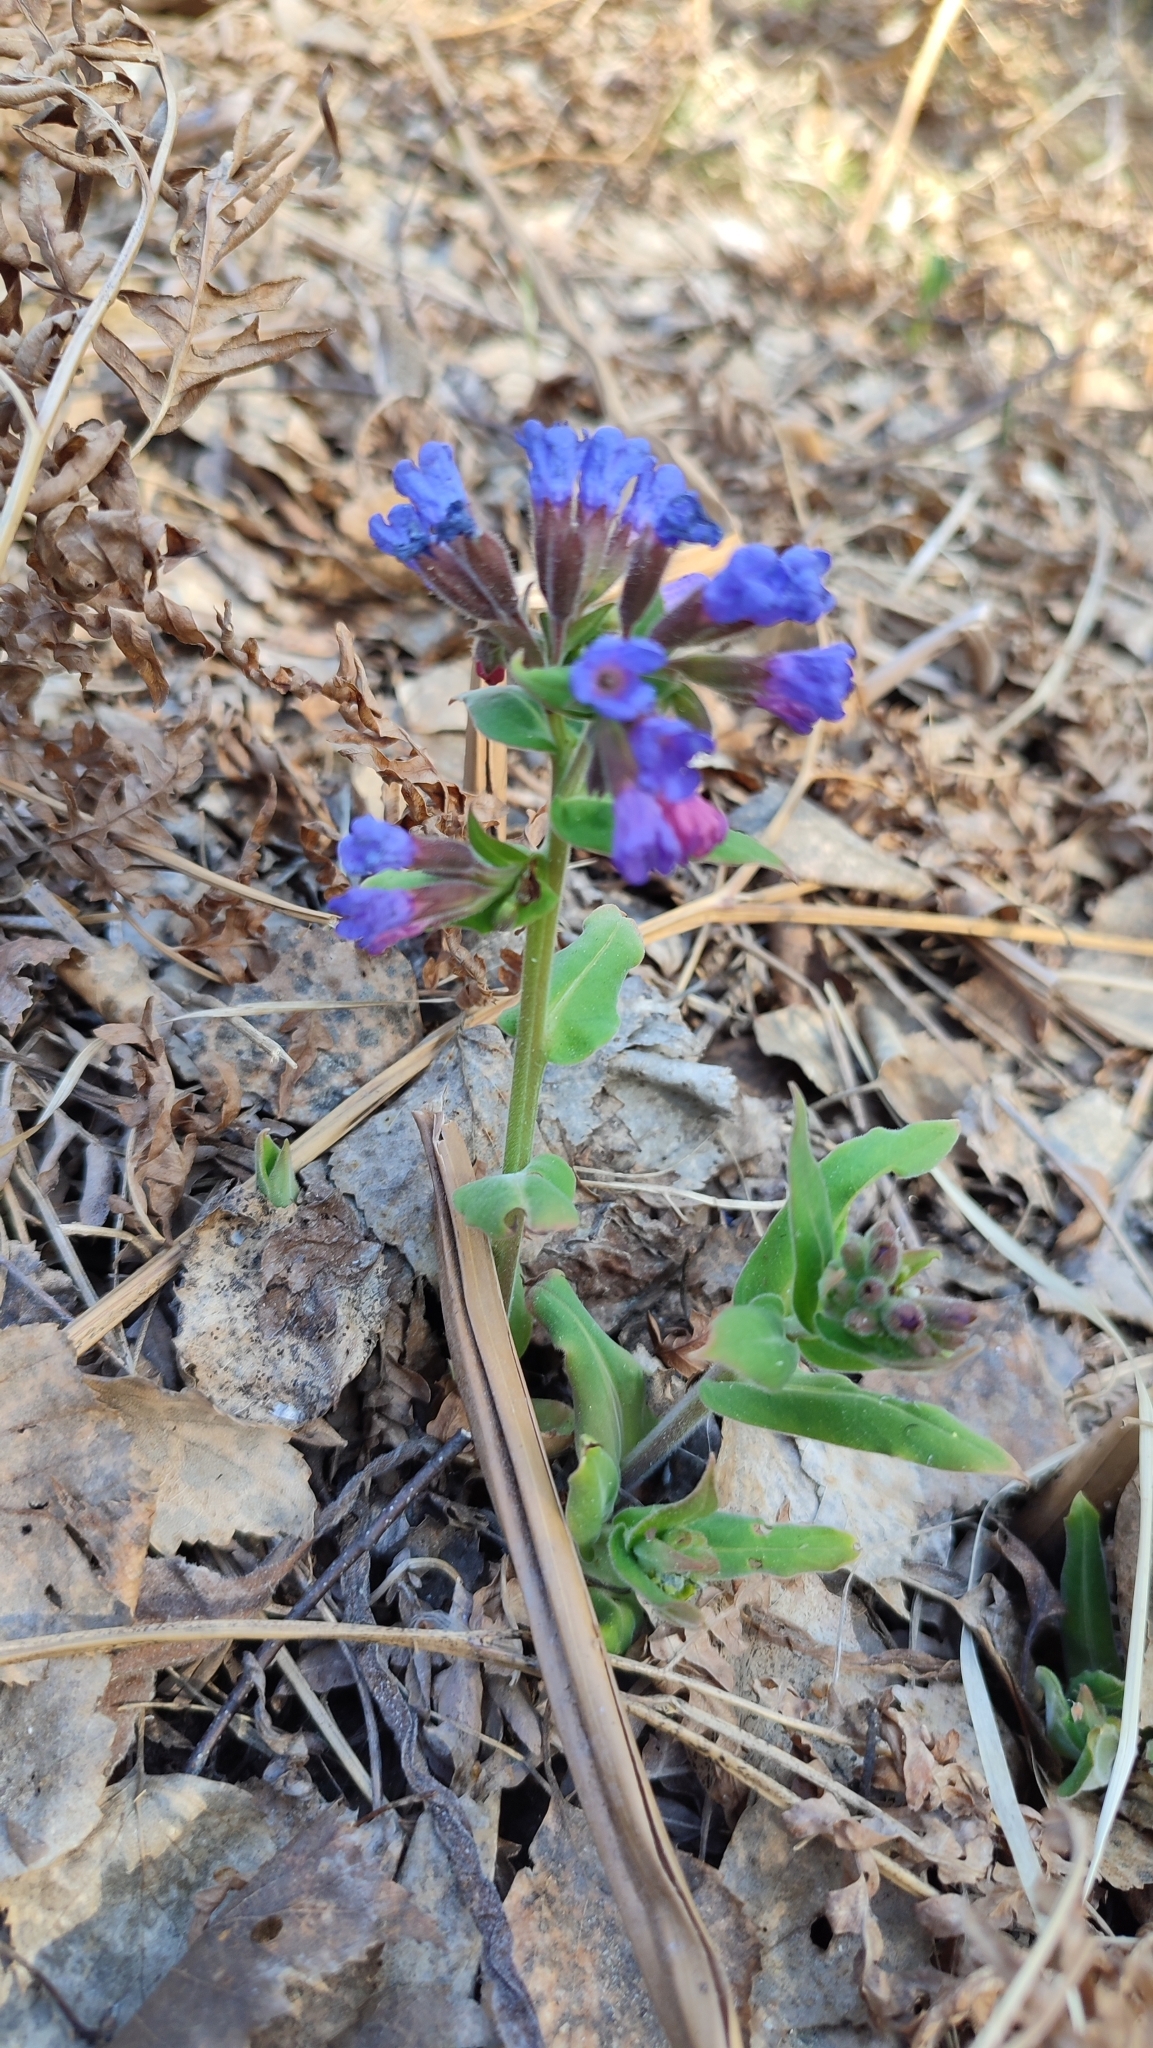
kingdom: Plantae
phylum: Tracheophyta
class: Magnoliopsida
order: Boraginales
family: Boraginaceae
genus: Pulmonaria
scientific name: Pulmonaria mollis
